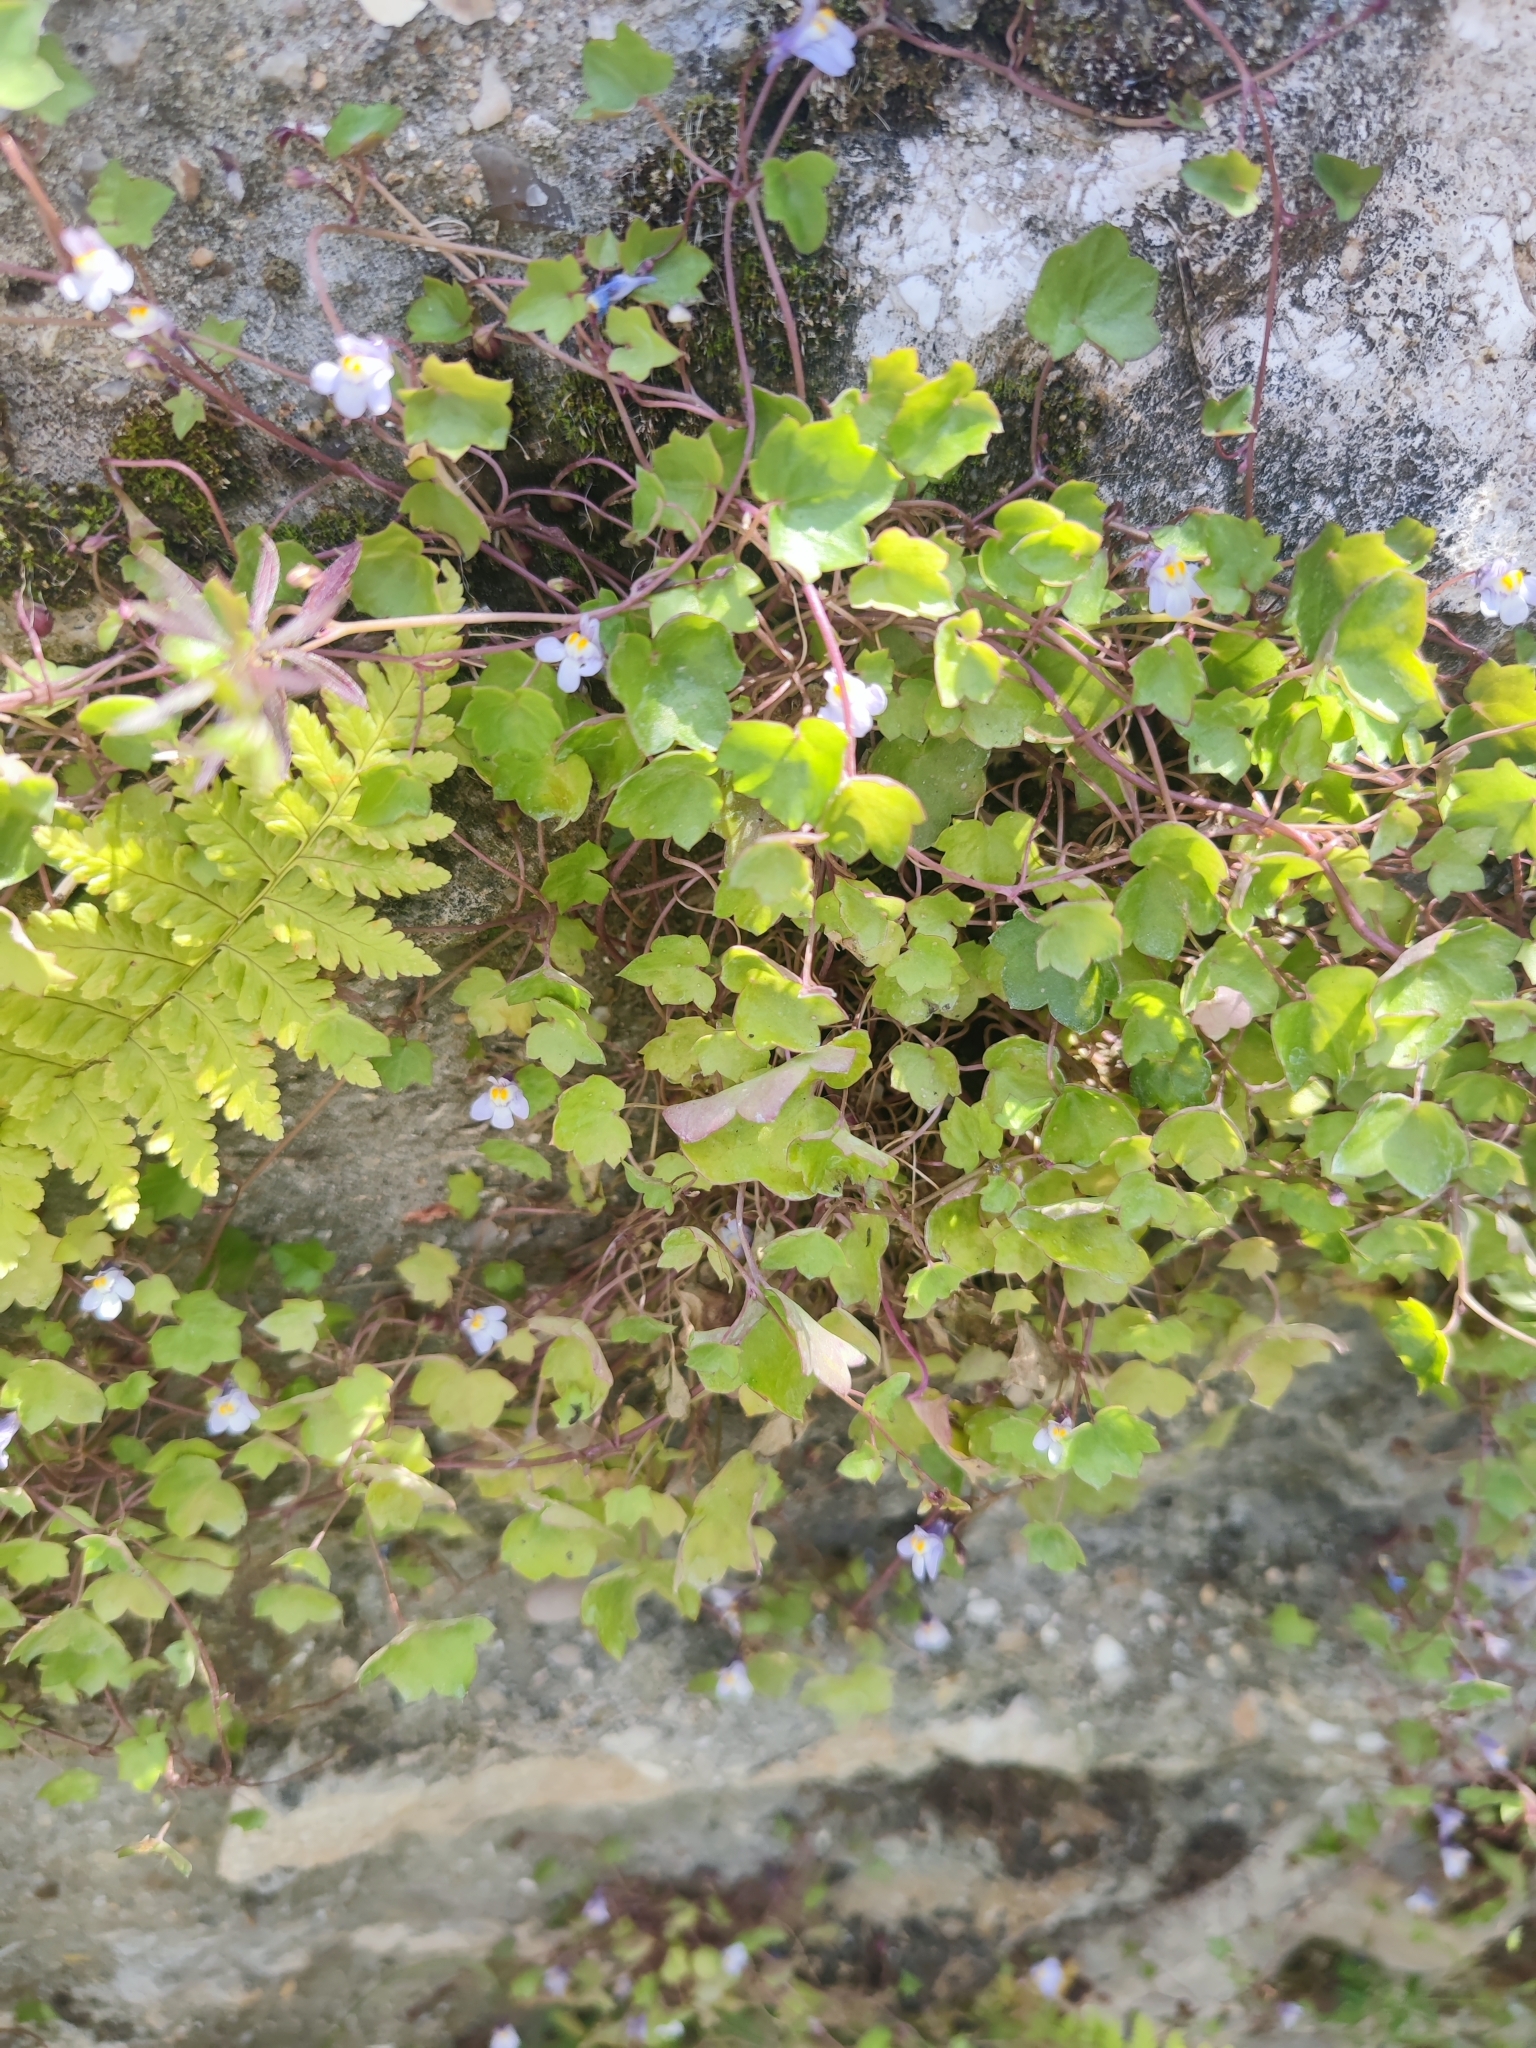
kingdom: Plantae
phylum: Tracheophyta
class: Magnoliopsida
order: Lamiales
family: Plantaginaceae
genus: Cymbalaria
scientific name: Cymbalaria muralis
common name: Ivy-leaved toadflax
